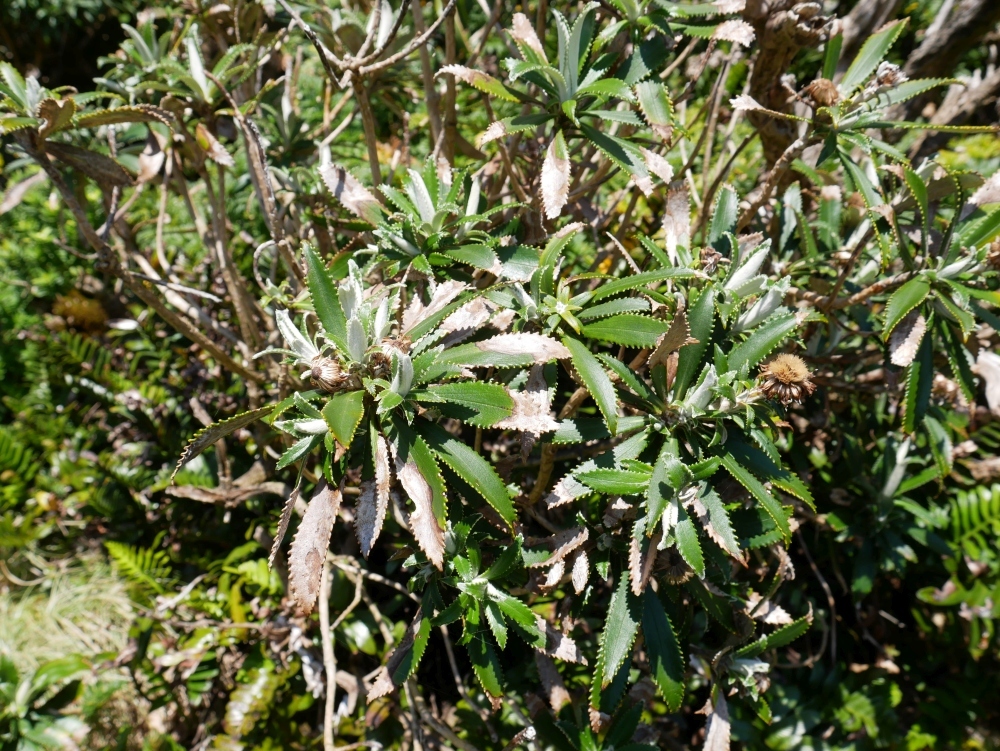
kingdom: Plantae
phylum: Tracheophyta
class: Magnoliopsida
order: Asterales
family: Asteraceae
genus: Macrolearia
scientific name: Macrolearia oporina
